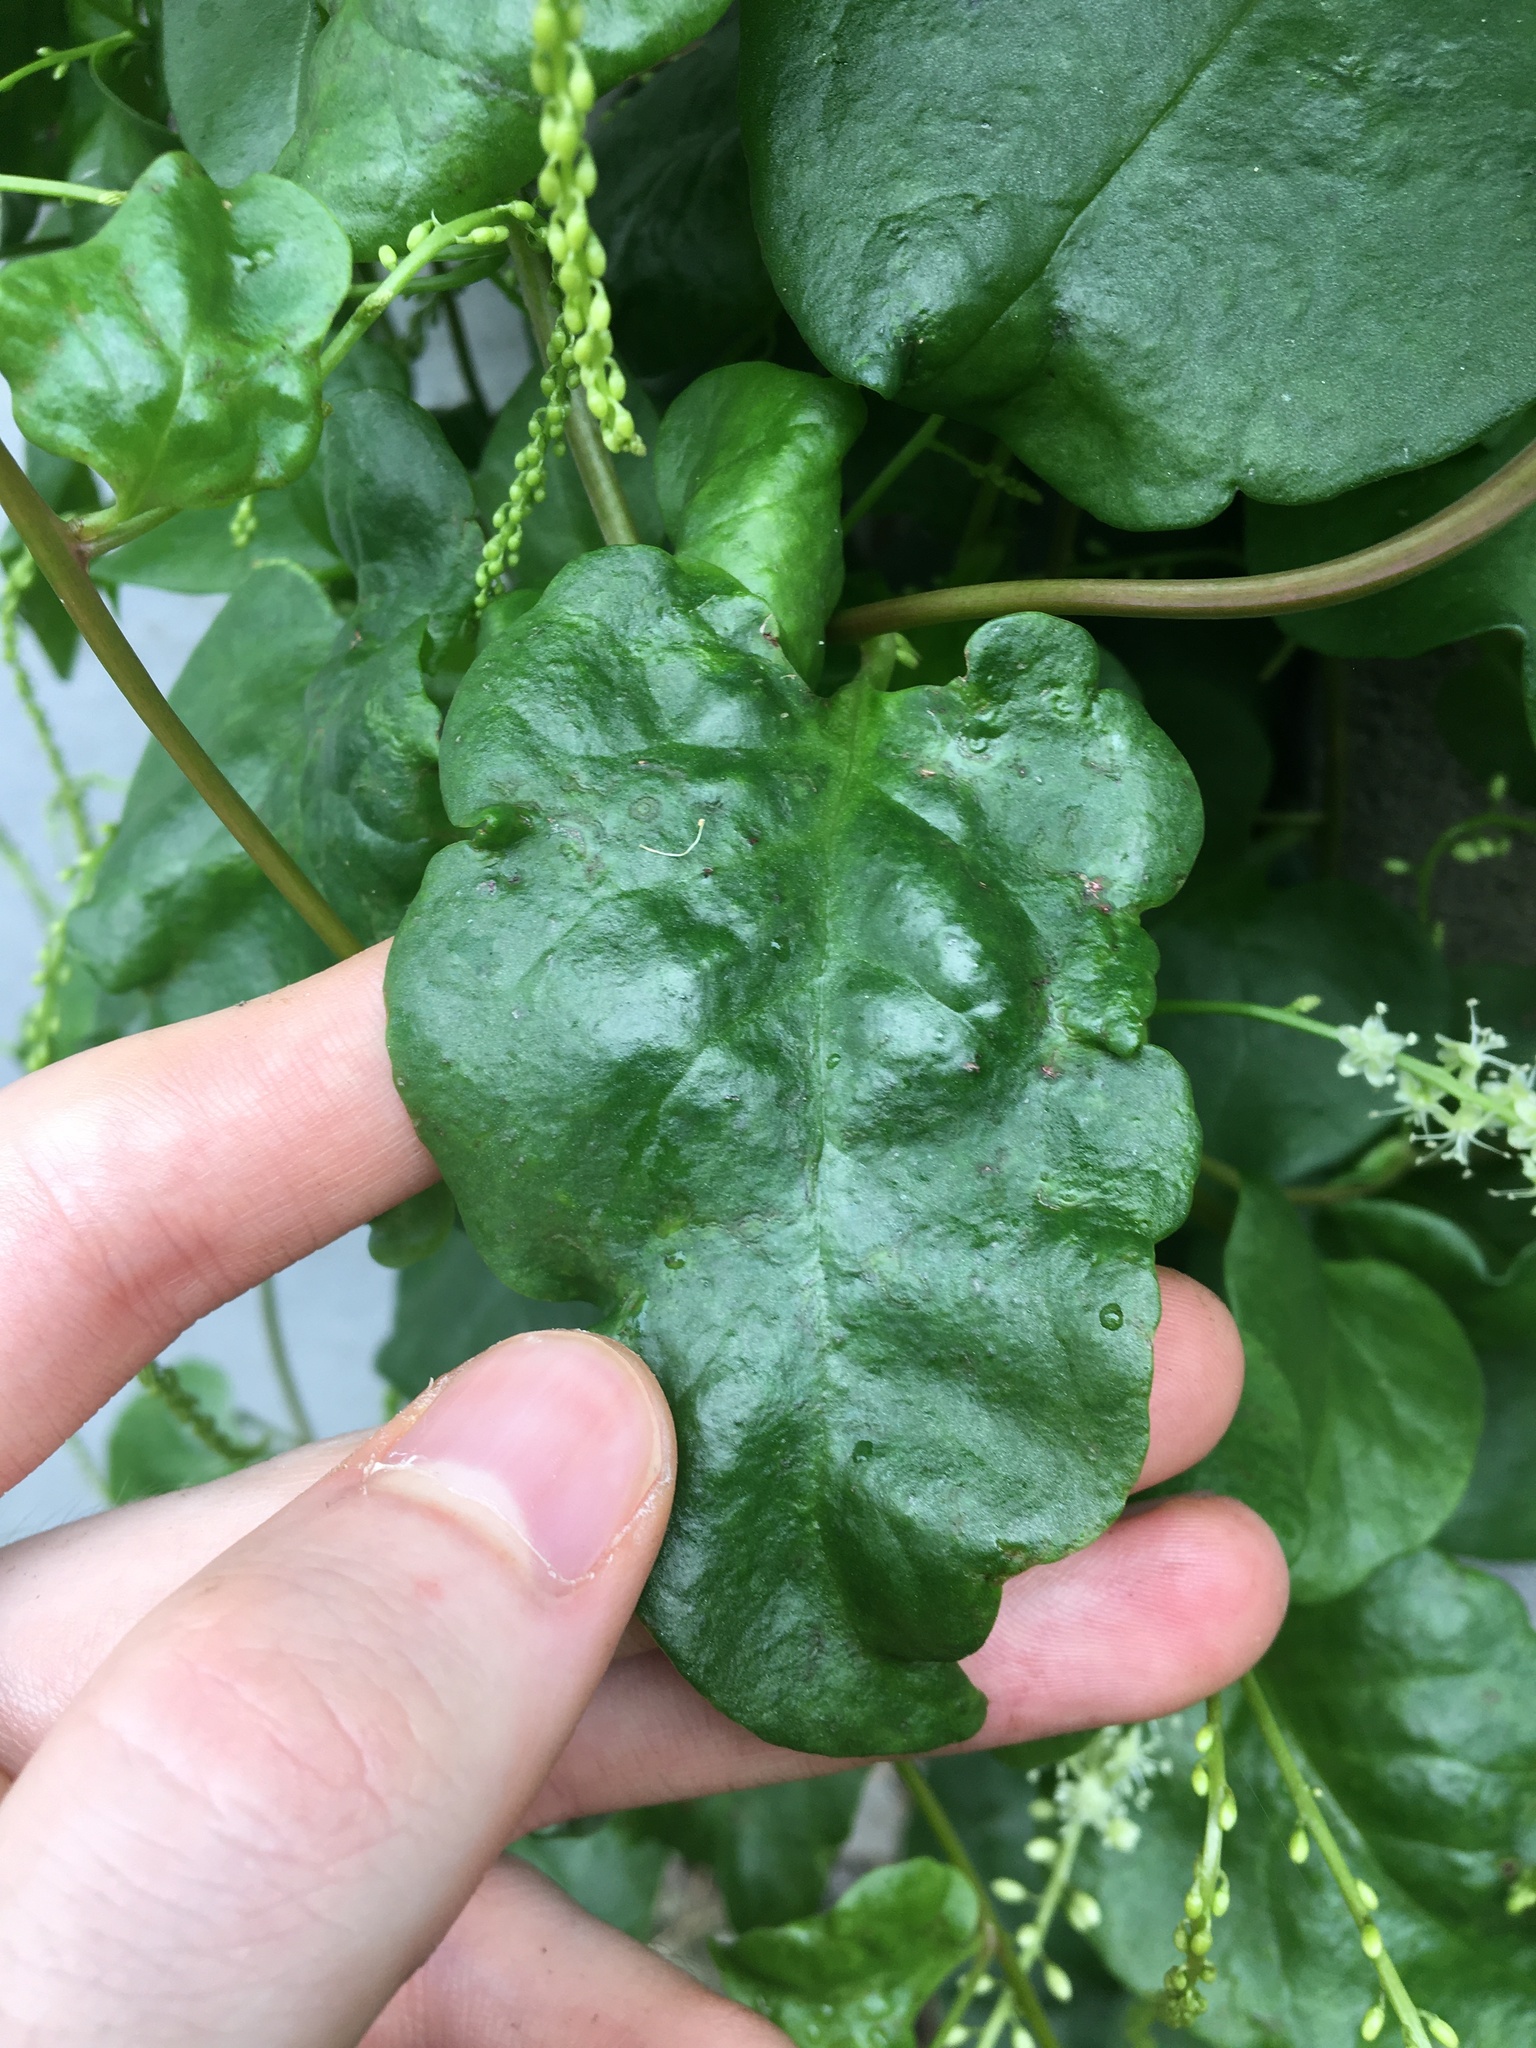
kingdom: Plantae
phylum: Tracheophyta
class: Magnoliopsida
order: Caryophyllales
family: Basellaceae
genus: Anredera
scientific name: Anredera cordifolia
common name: Heartleaf madeiravine
